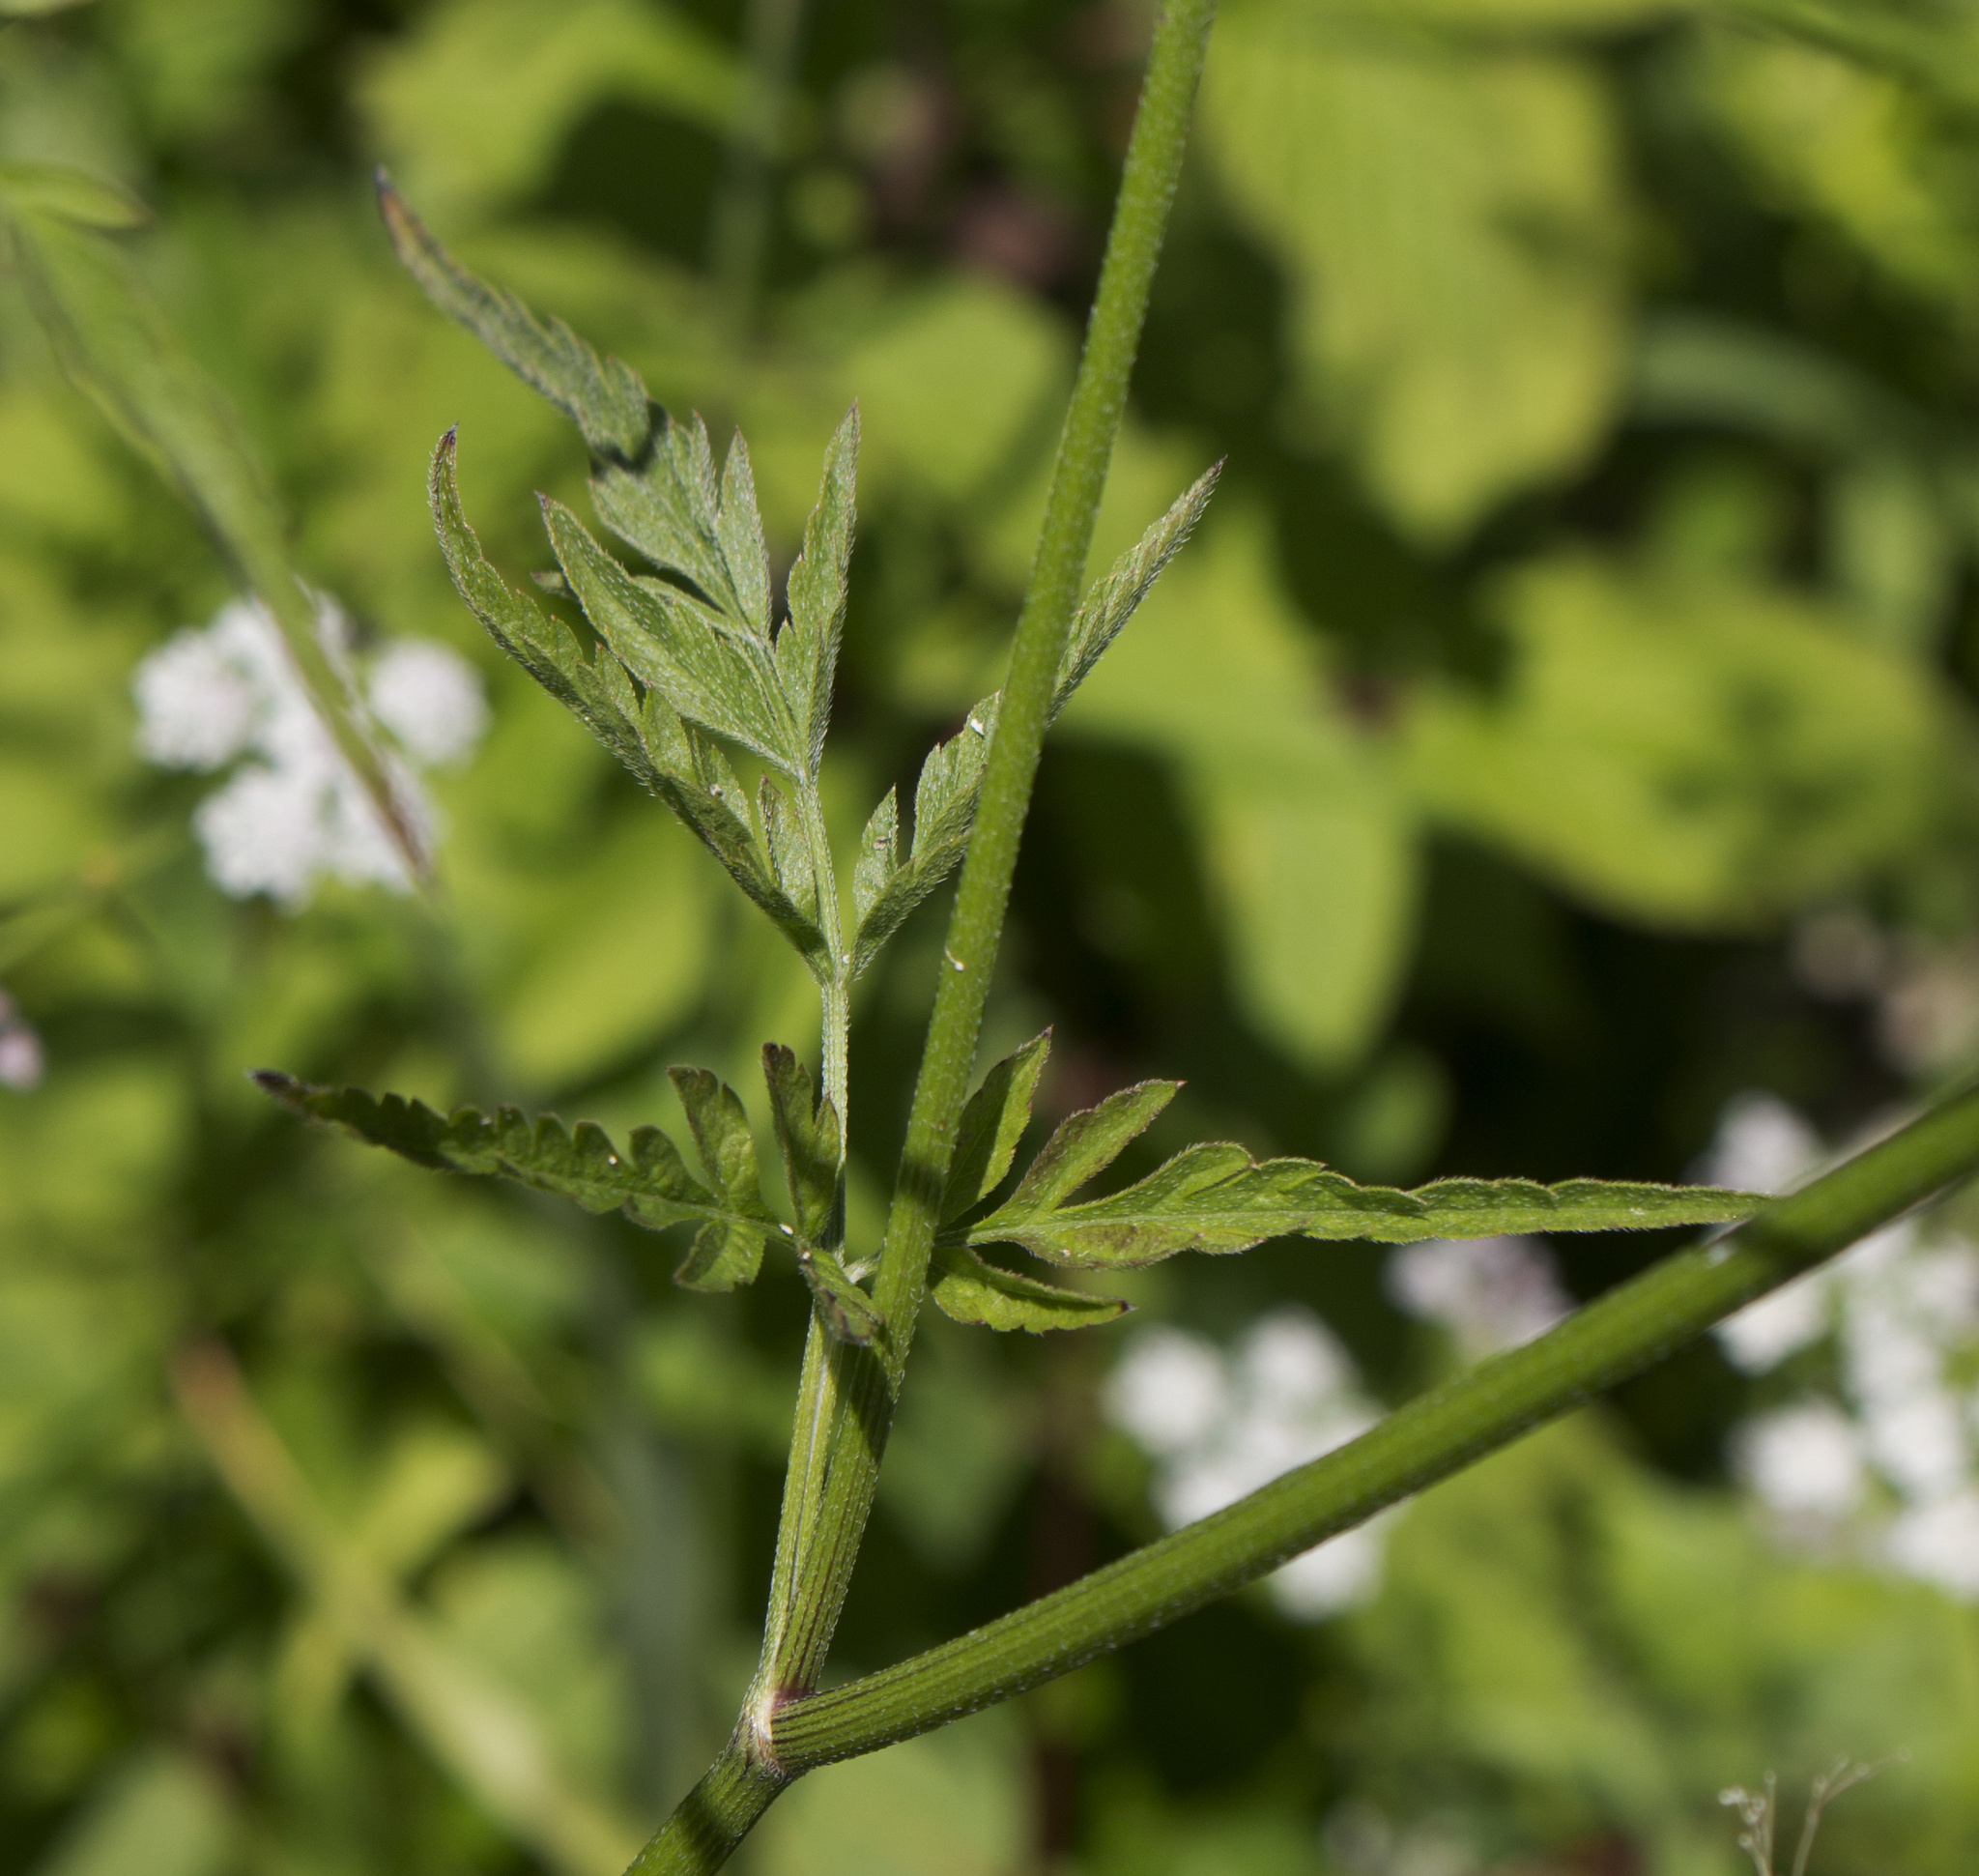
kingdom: Plantae
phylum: Tracheophyta
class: Magnoliopsida
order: Apiales
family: Apiaceae
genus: Torilis
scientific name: Torilis japonica
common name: Upright hedge-parsley
